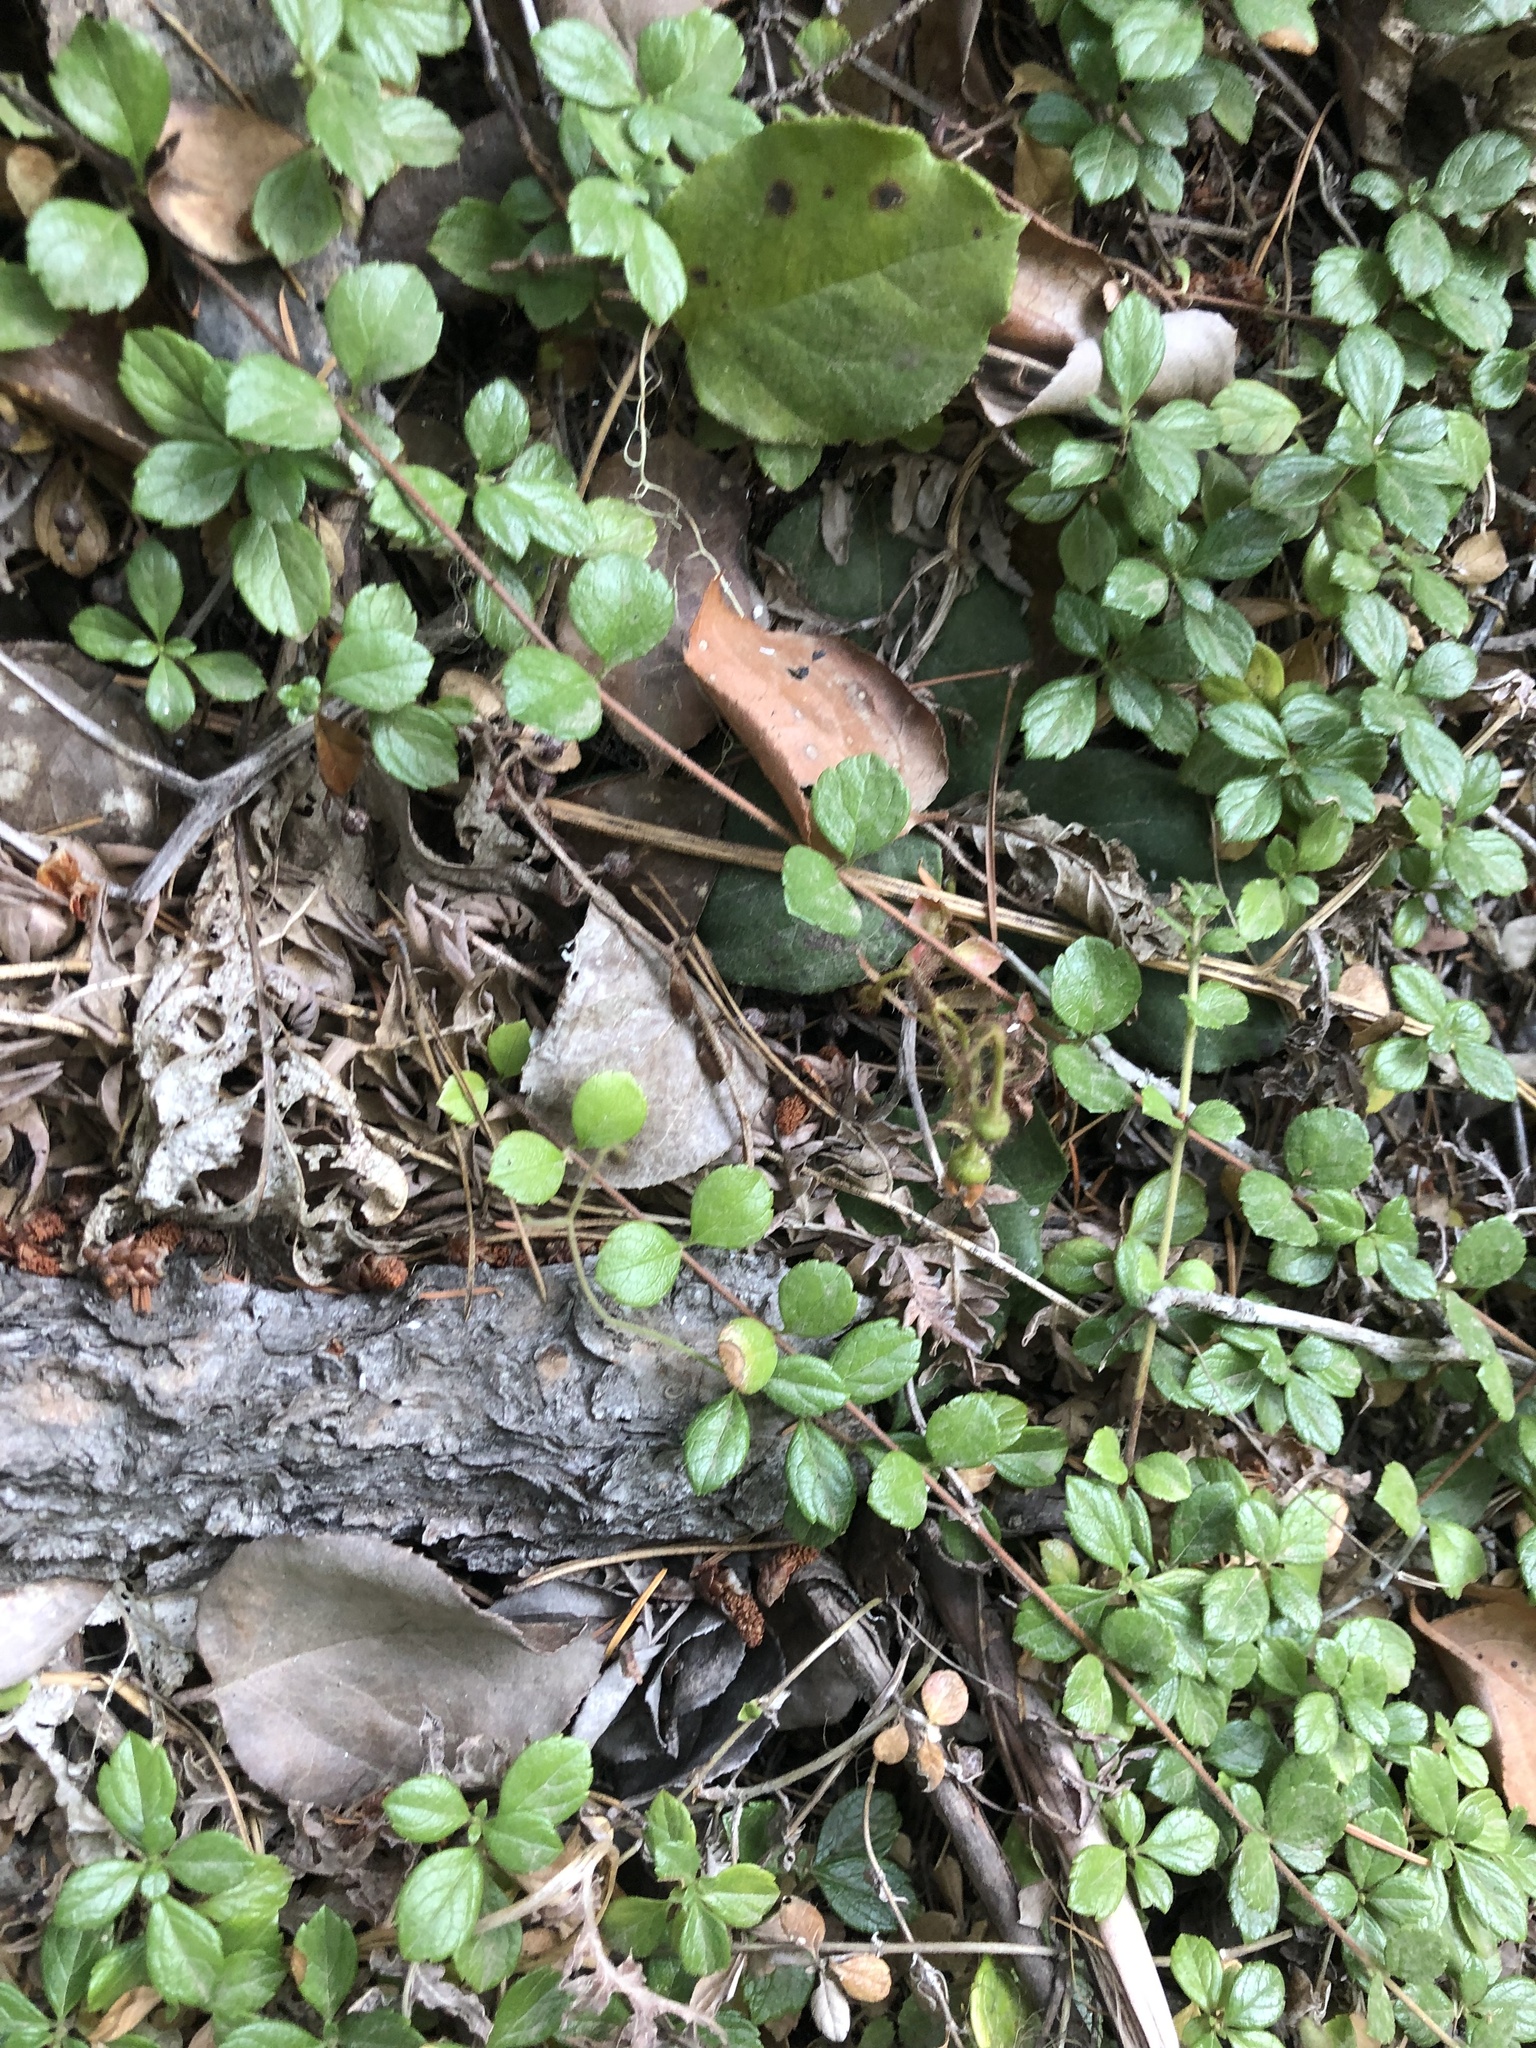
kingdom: Plantae
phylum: Tracheophyta
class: Magnoliopsida
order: Dipsacales
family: Caprifoliaceae
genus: Linnaea
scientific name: Linnaea borealis
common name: Twinflower
